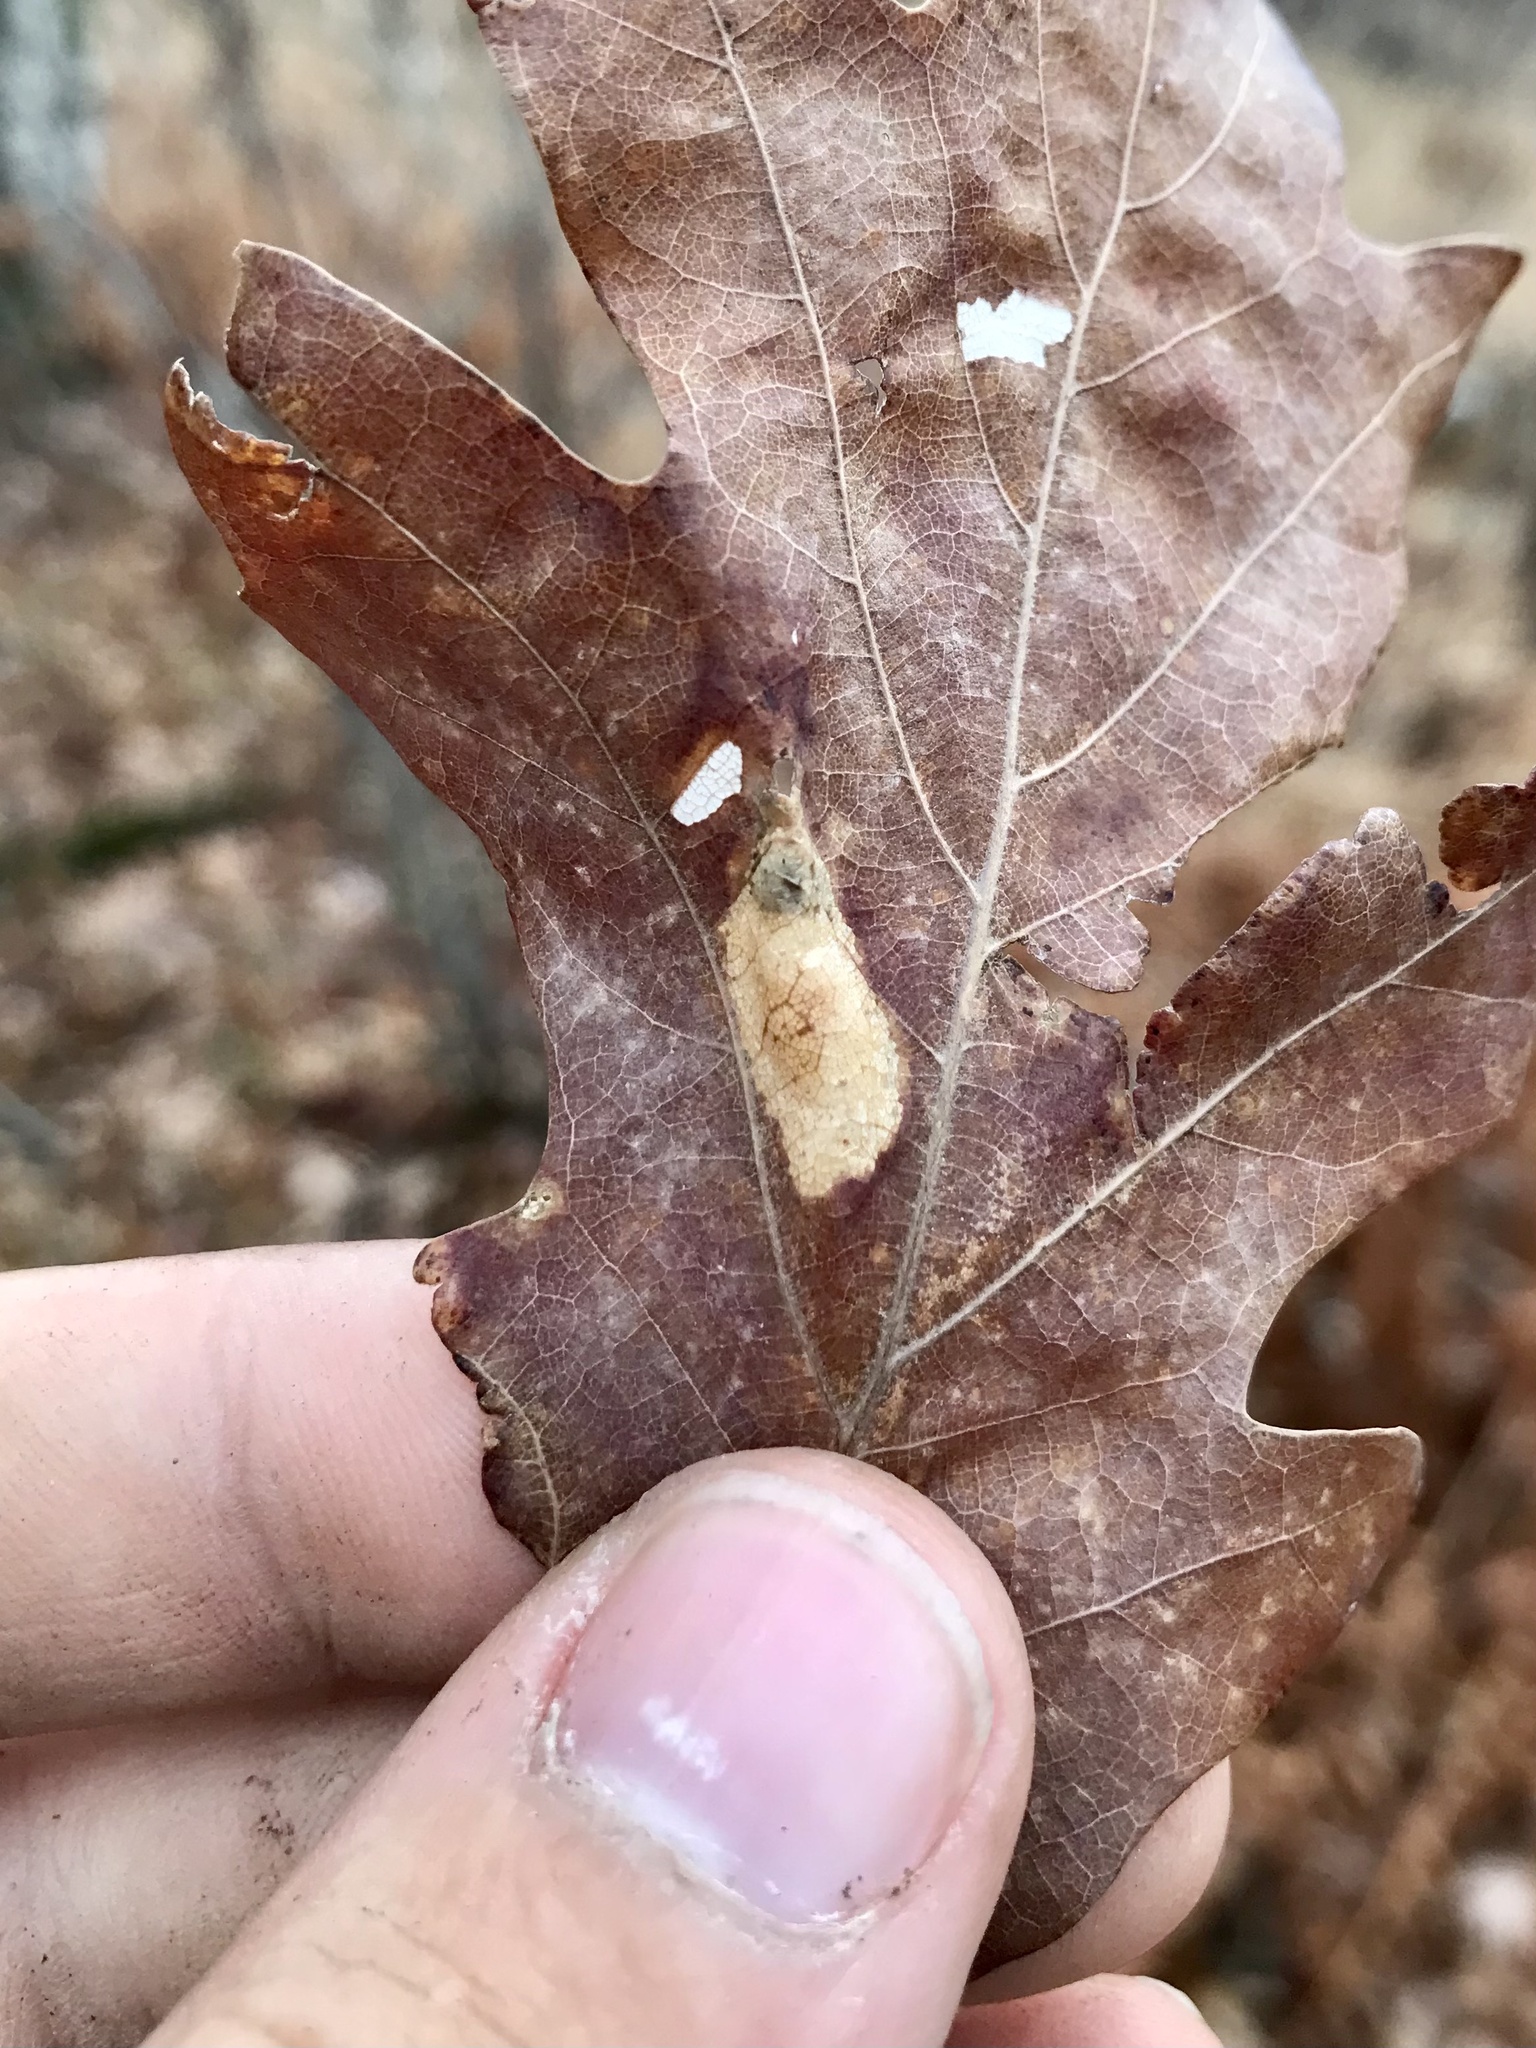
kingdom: Animalia
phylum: Arthropoda
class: Insecta
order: Lepidoptera
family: Gracillariidae
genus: Phyllonorycter
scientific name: Phyllonorycter fitchella
